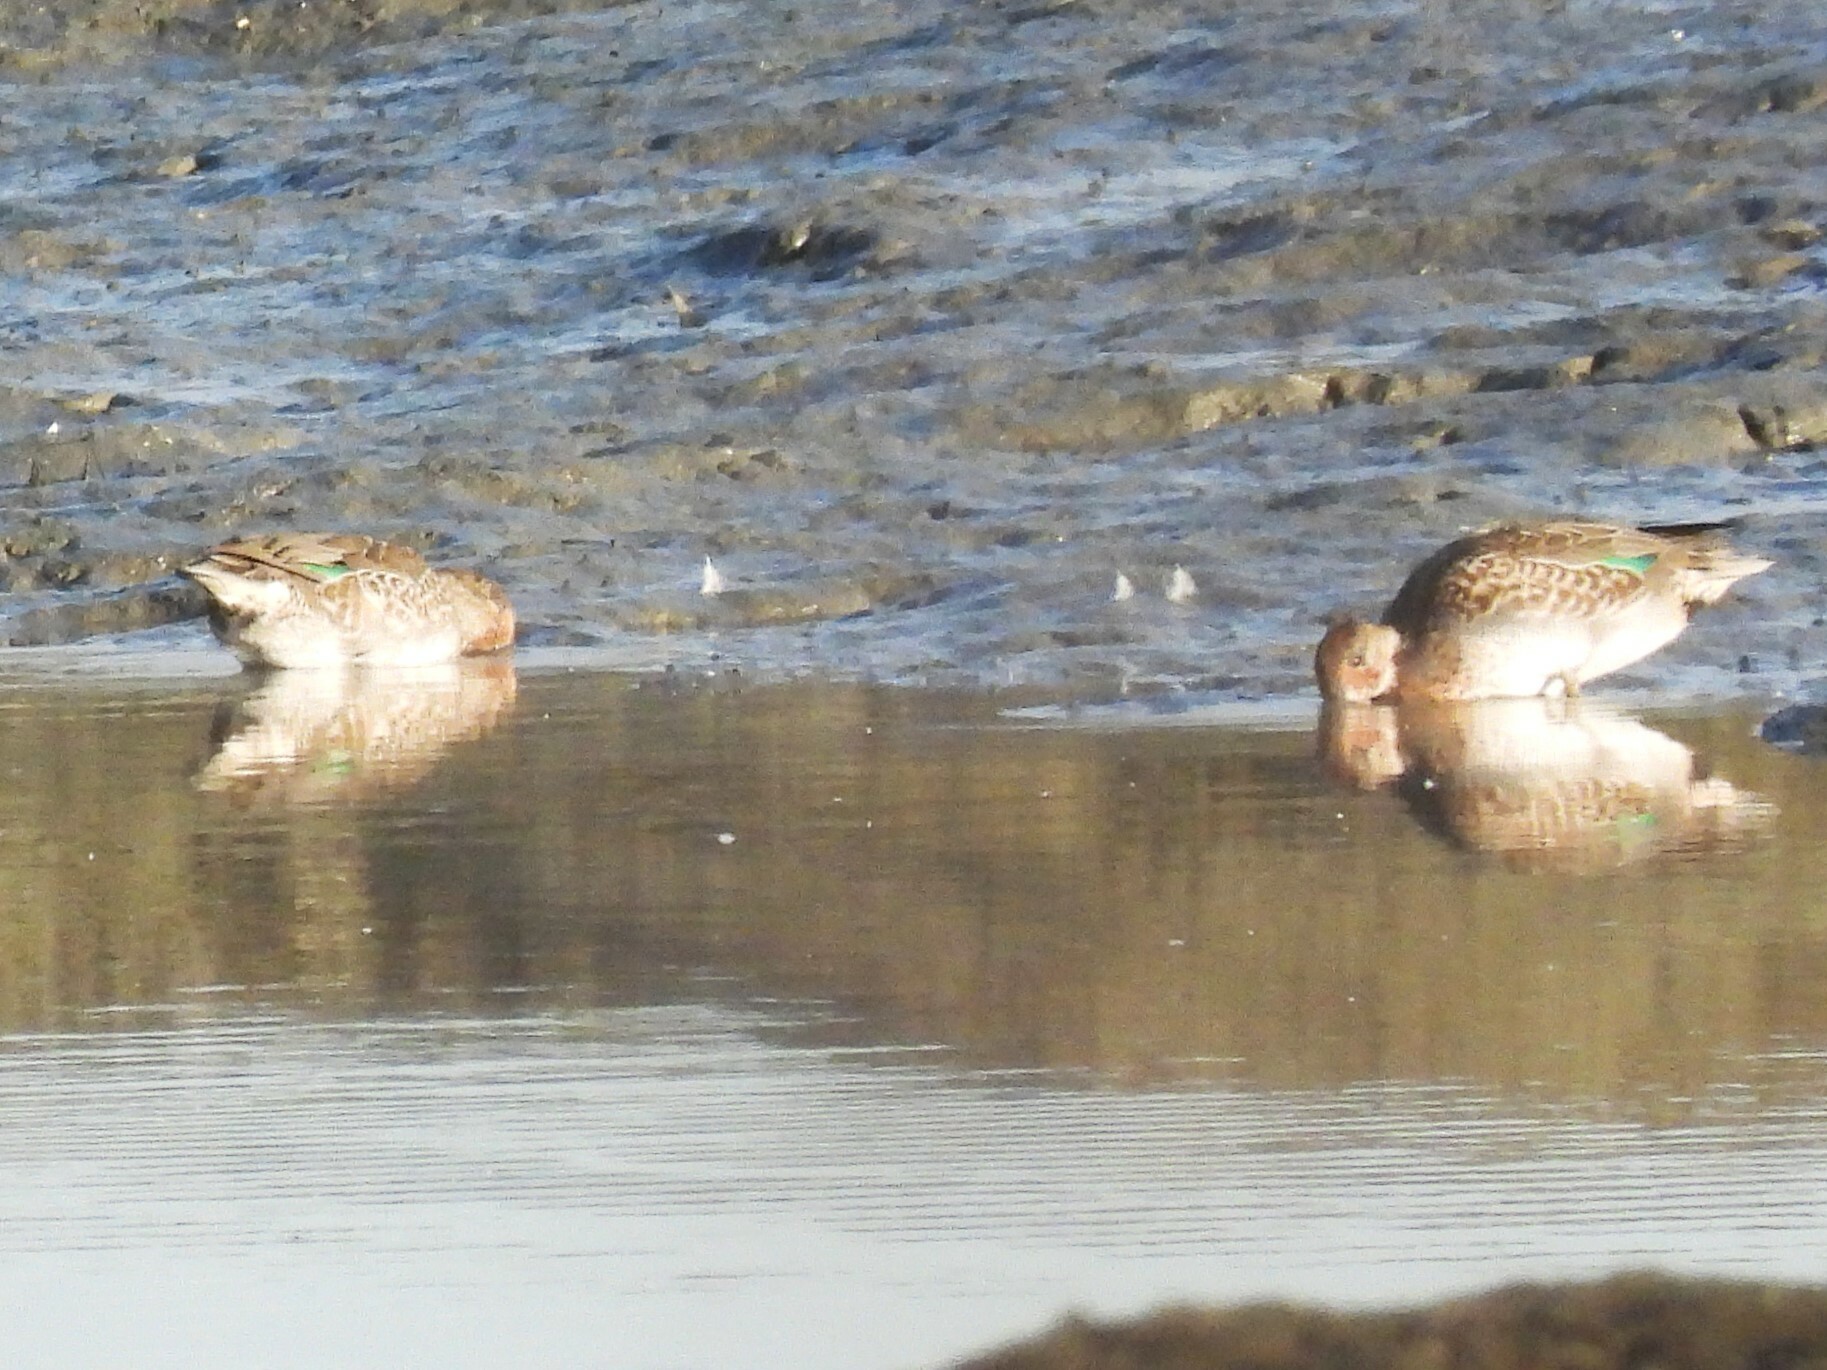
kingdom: Animalia
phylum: Chordata
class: Aves
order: Anseriformes
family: Anatidae
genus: Anas
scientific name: Anas crecca
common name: Eurasian teal
